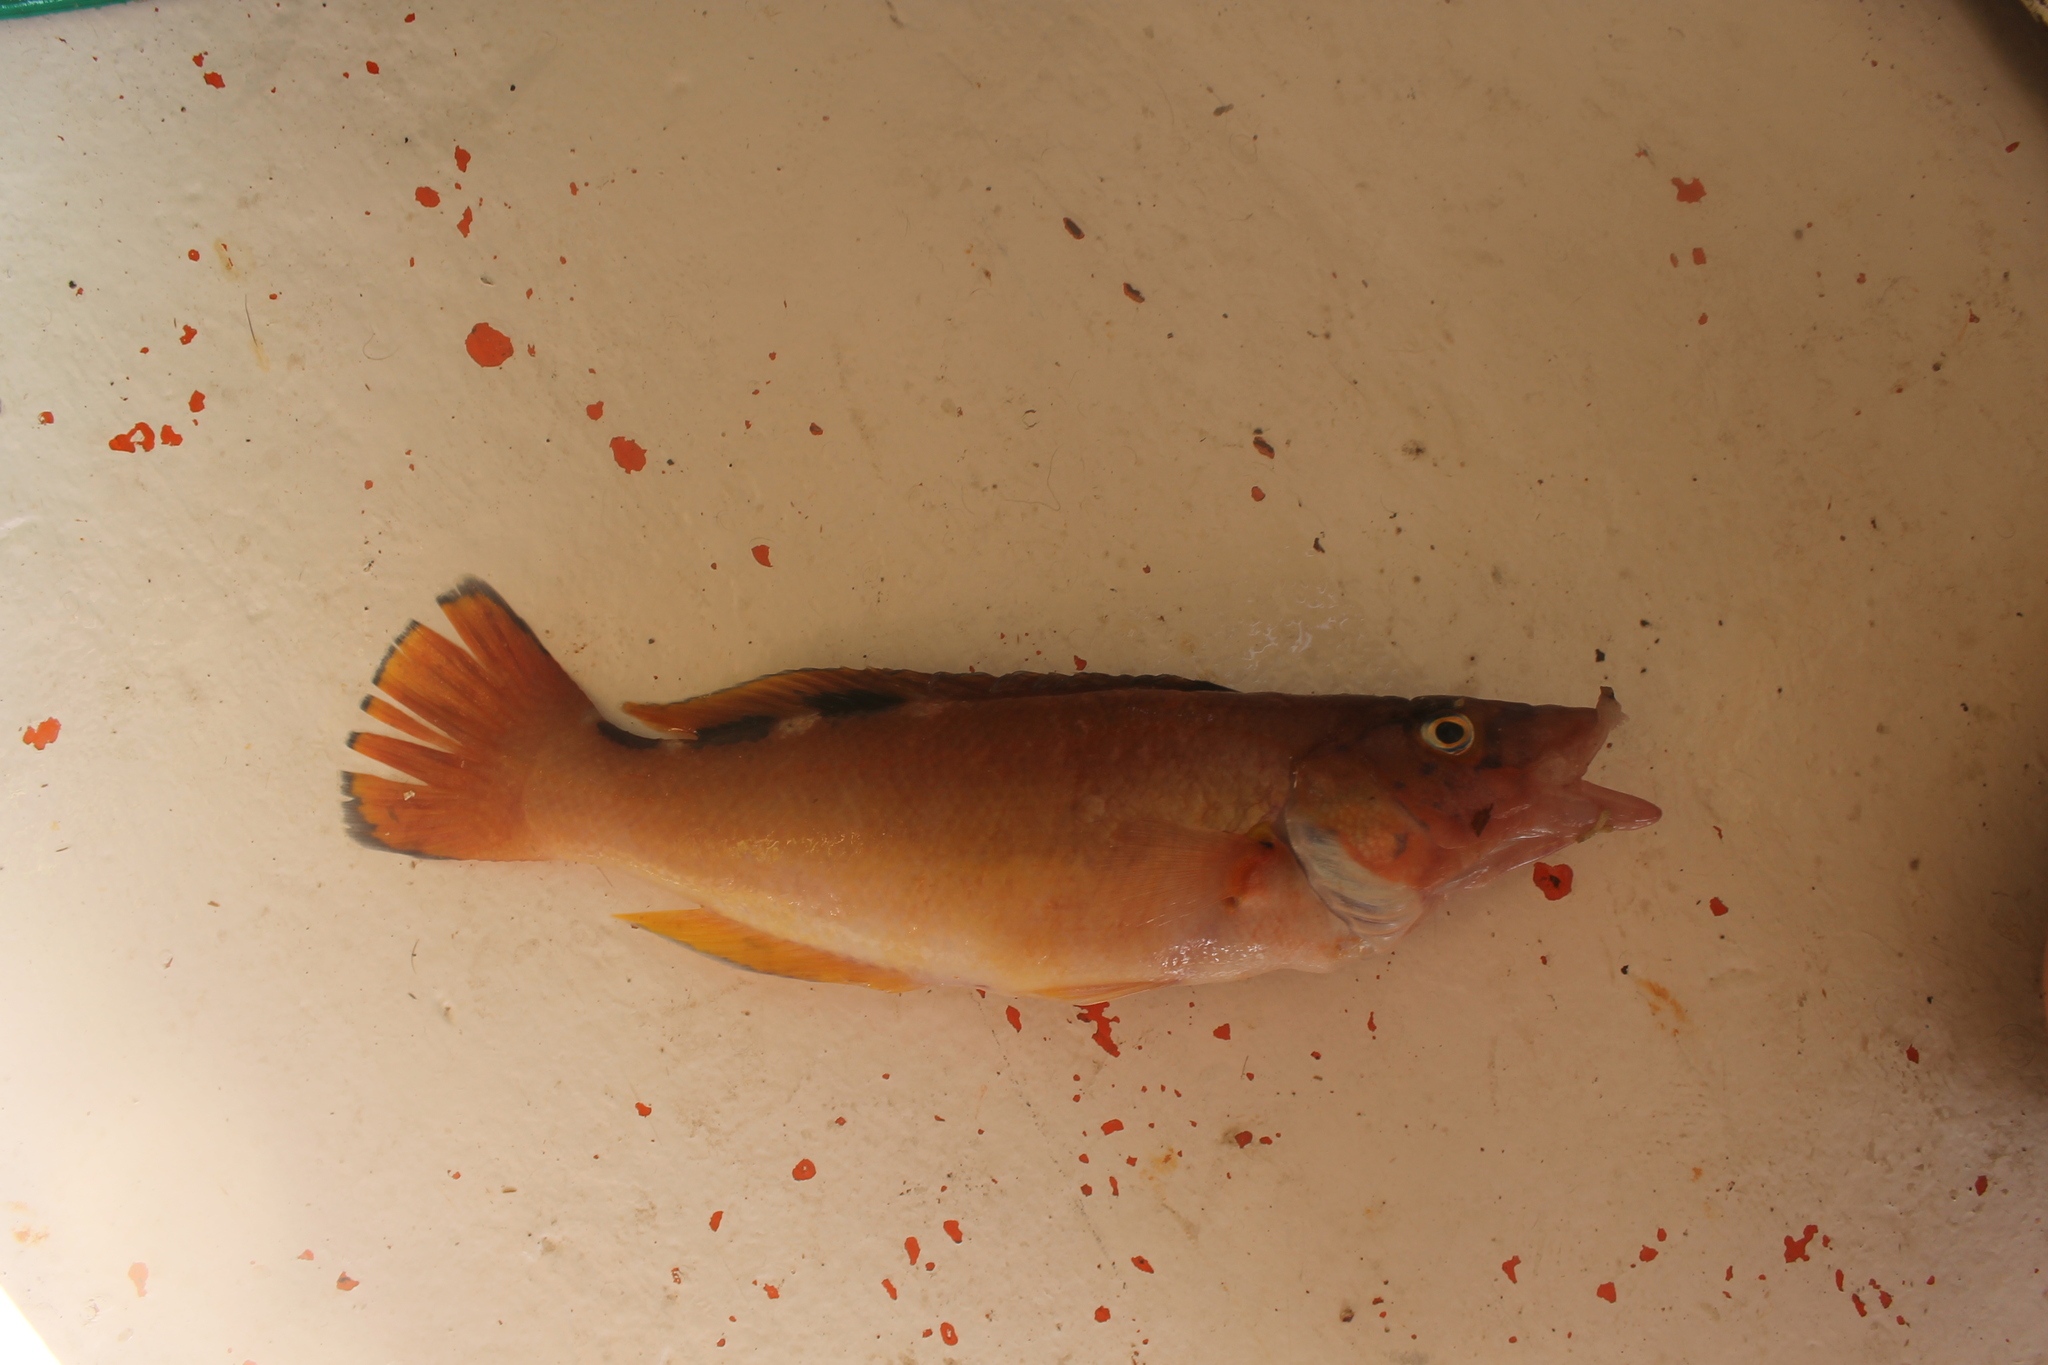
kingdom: Animalia
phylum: Chordata
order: Perciformes
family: Labridae
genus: Labrus
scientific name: Labrus mixtus
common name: Cuckoo wrasse
